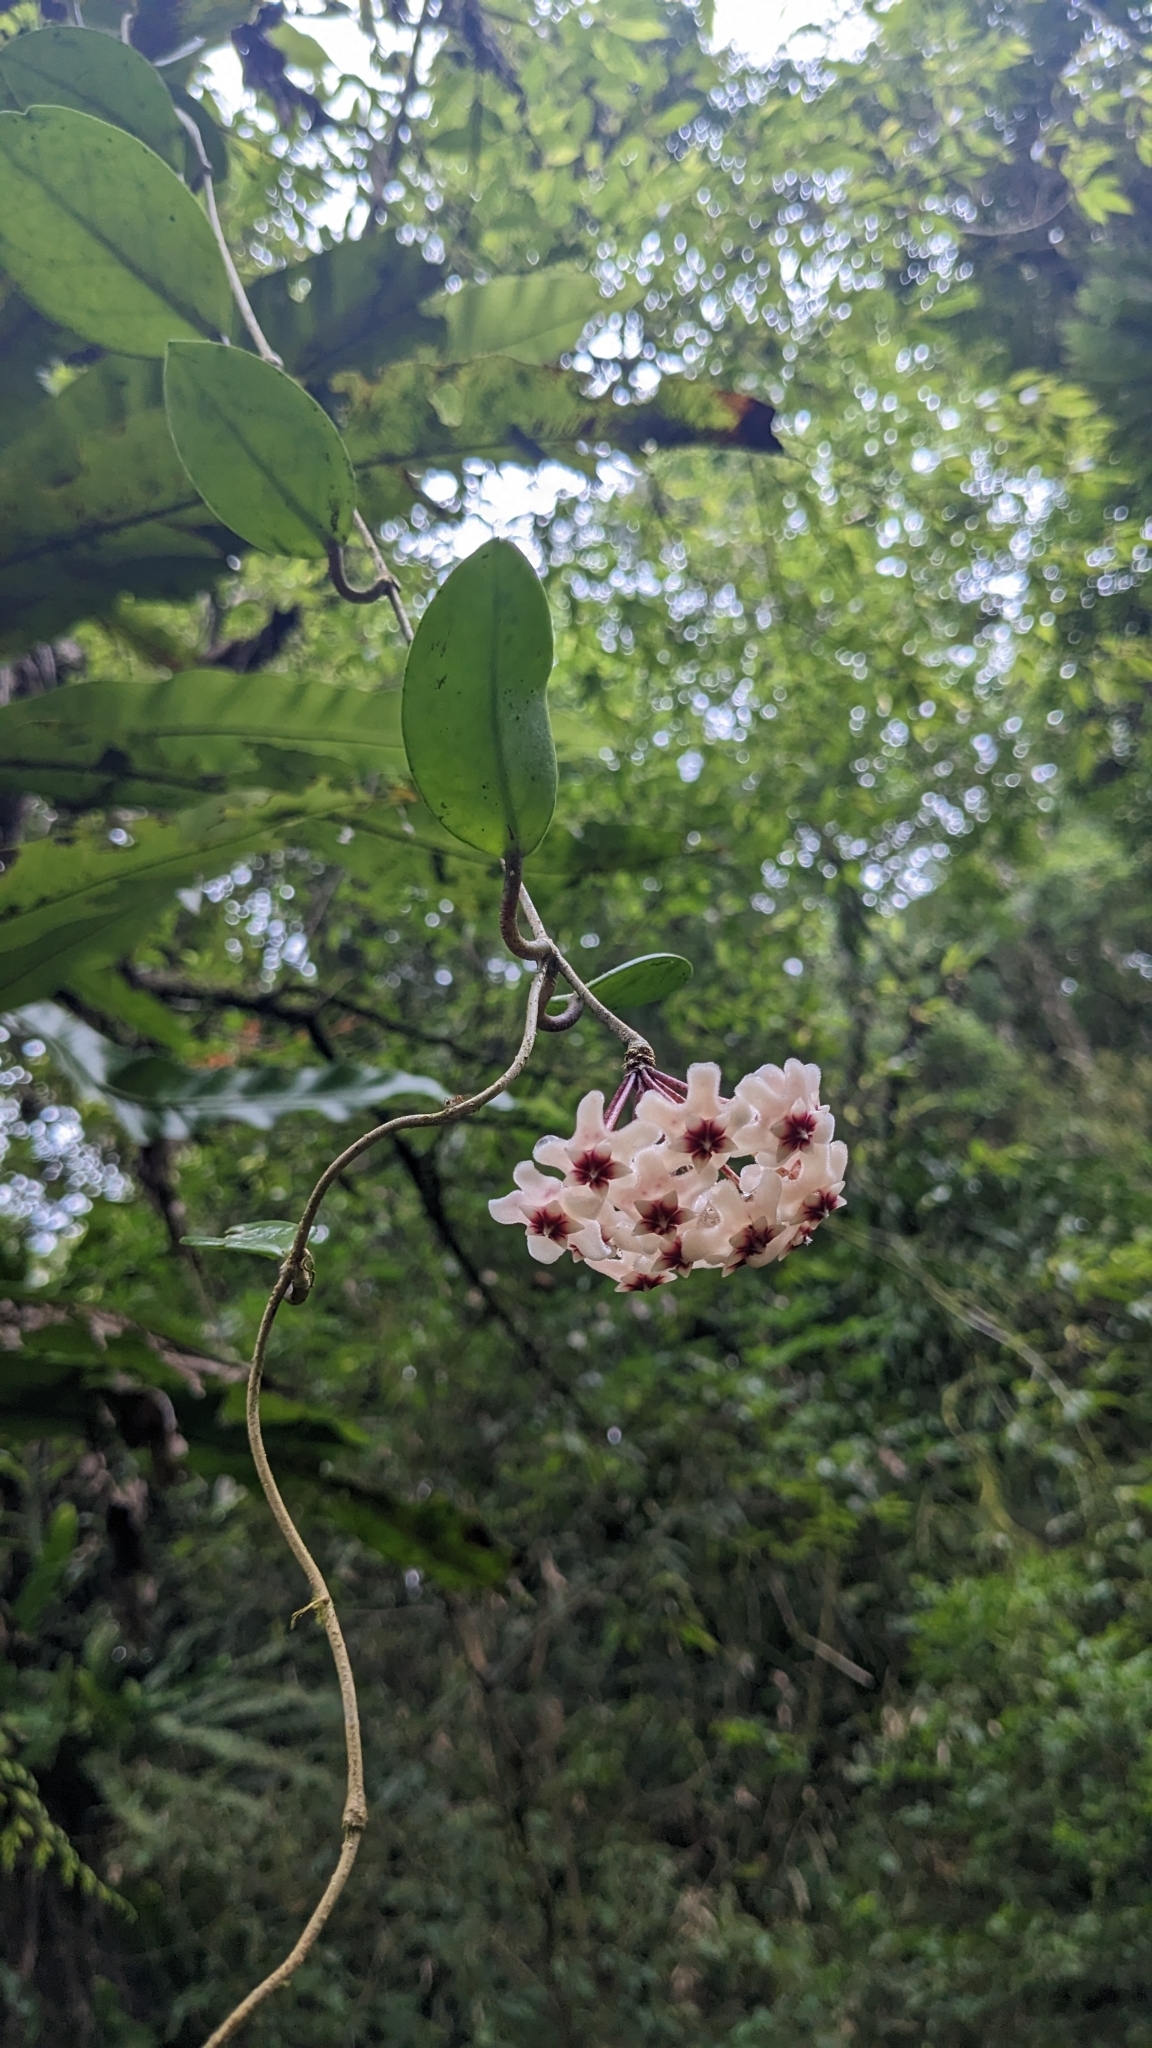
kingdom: Plantae
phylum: Tracheophyta
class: Magnoliopsida
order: Gentianales
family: Apocynaceae
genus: Hoya
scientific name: Hoya carnosa
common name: Honeyplant
